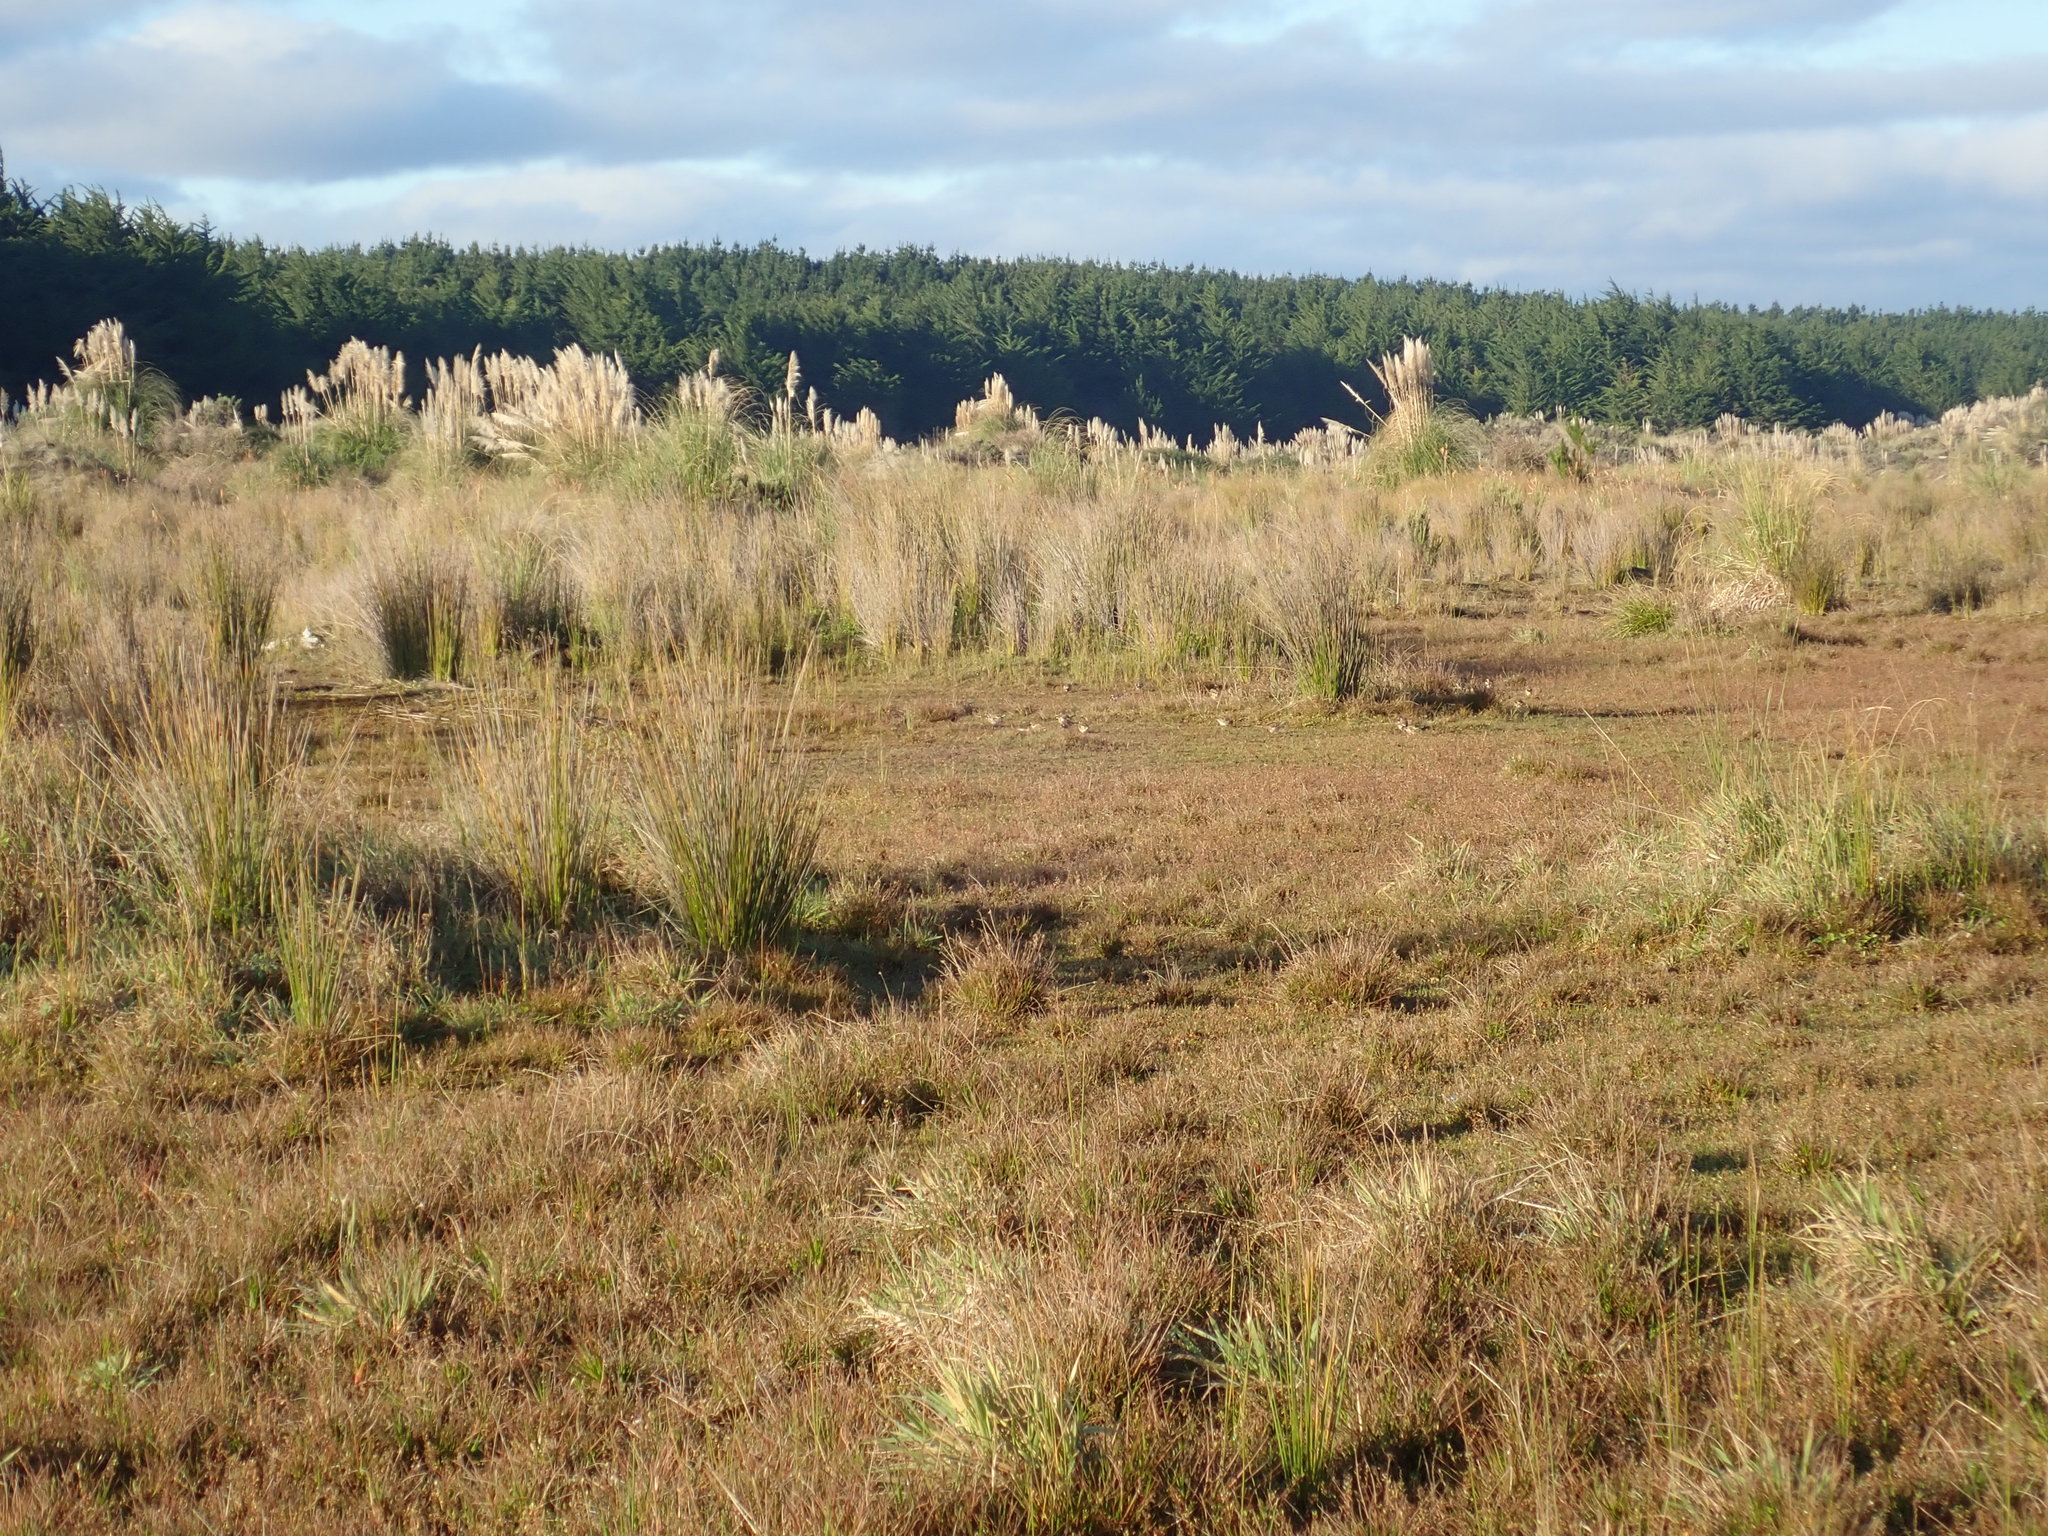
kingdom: Animalia
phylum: Chordata
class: Aves
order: Passeriformes
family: Fringillidae
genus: Carduelis
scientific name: Carduelis carduelis
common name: European goldfinch
